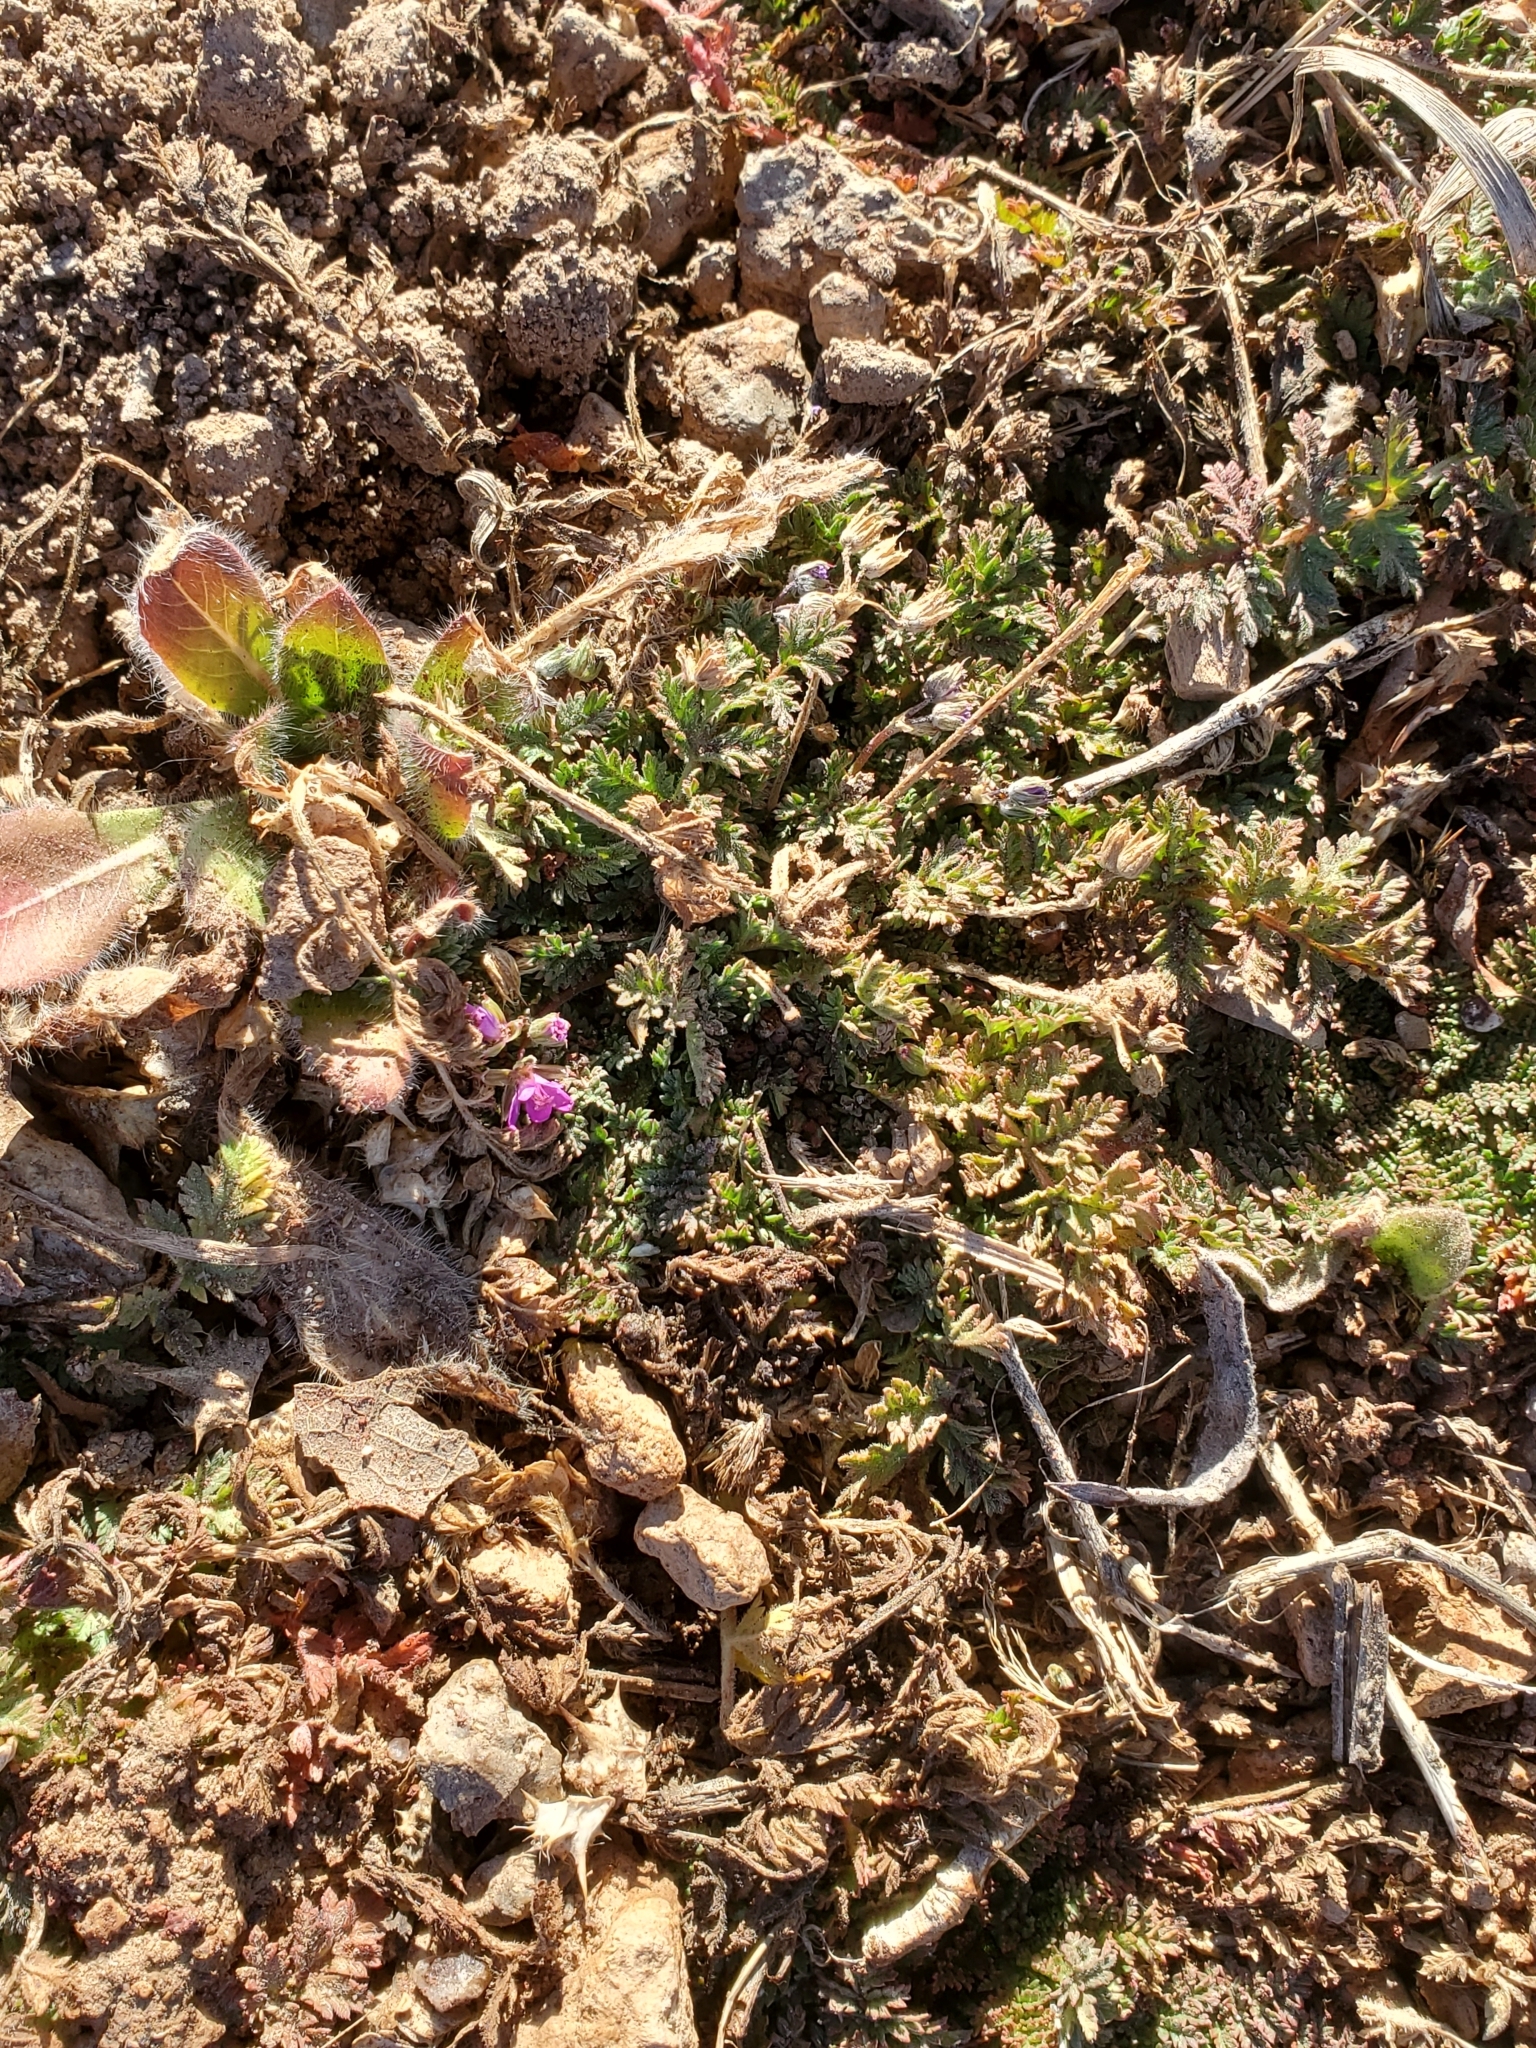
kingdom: Plantae
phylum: Tracheophyta
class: Magnoliopsida
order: Geraniales
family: Geraniaceae
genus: Erodium
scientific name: Erodium cicutarium
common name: Common stork's-bill
